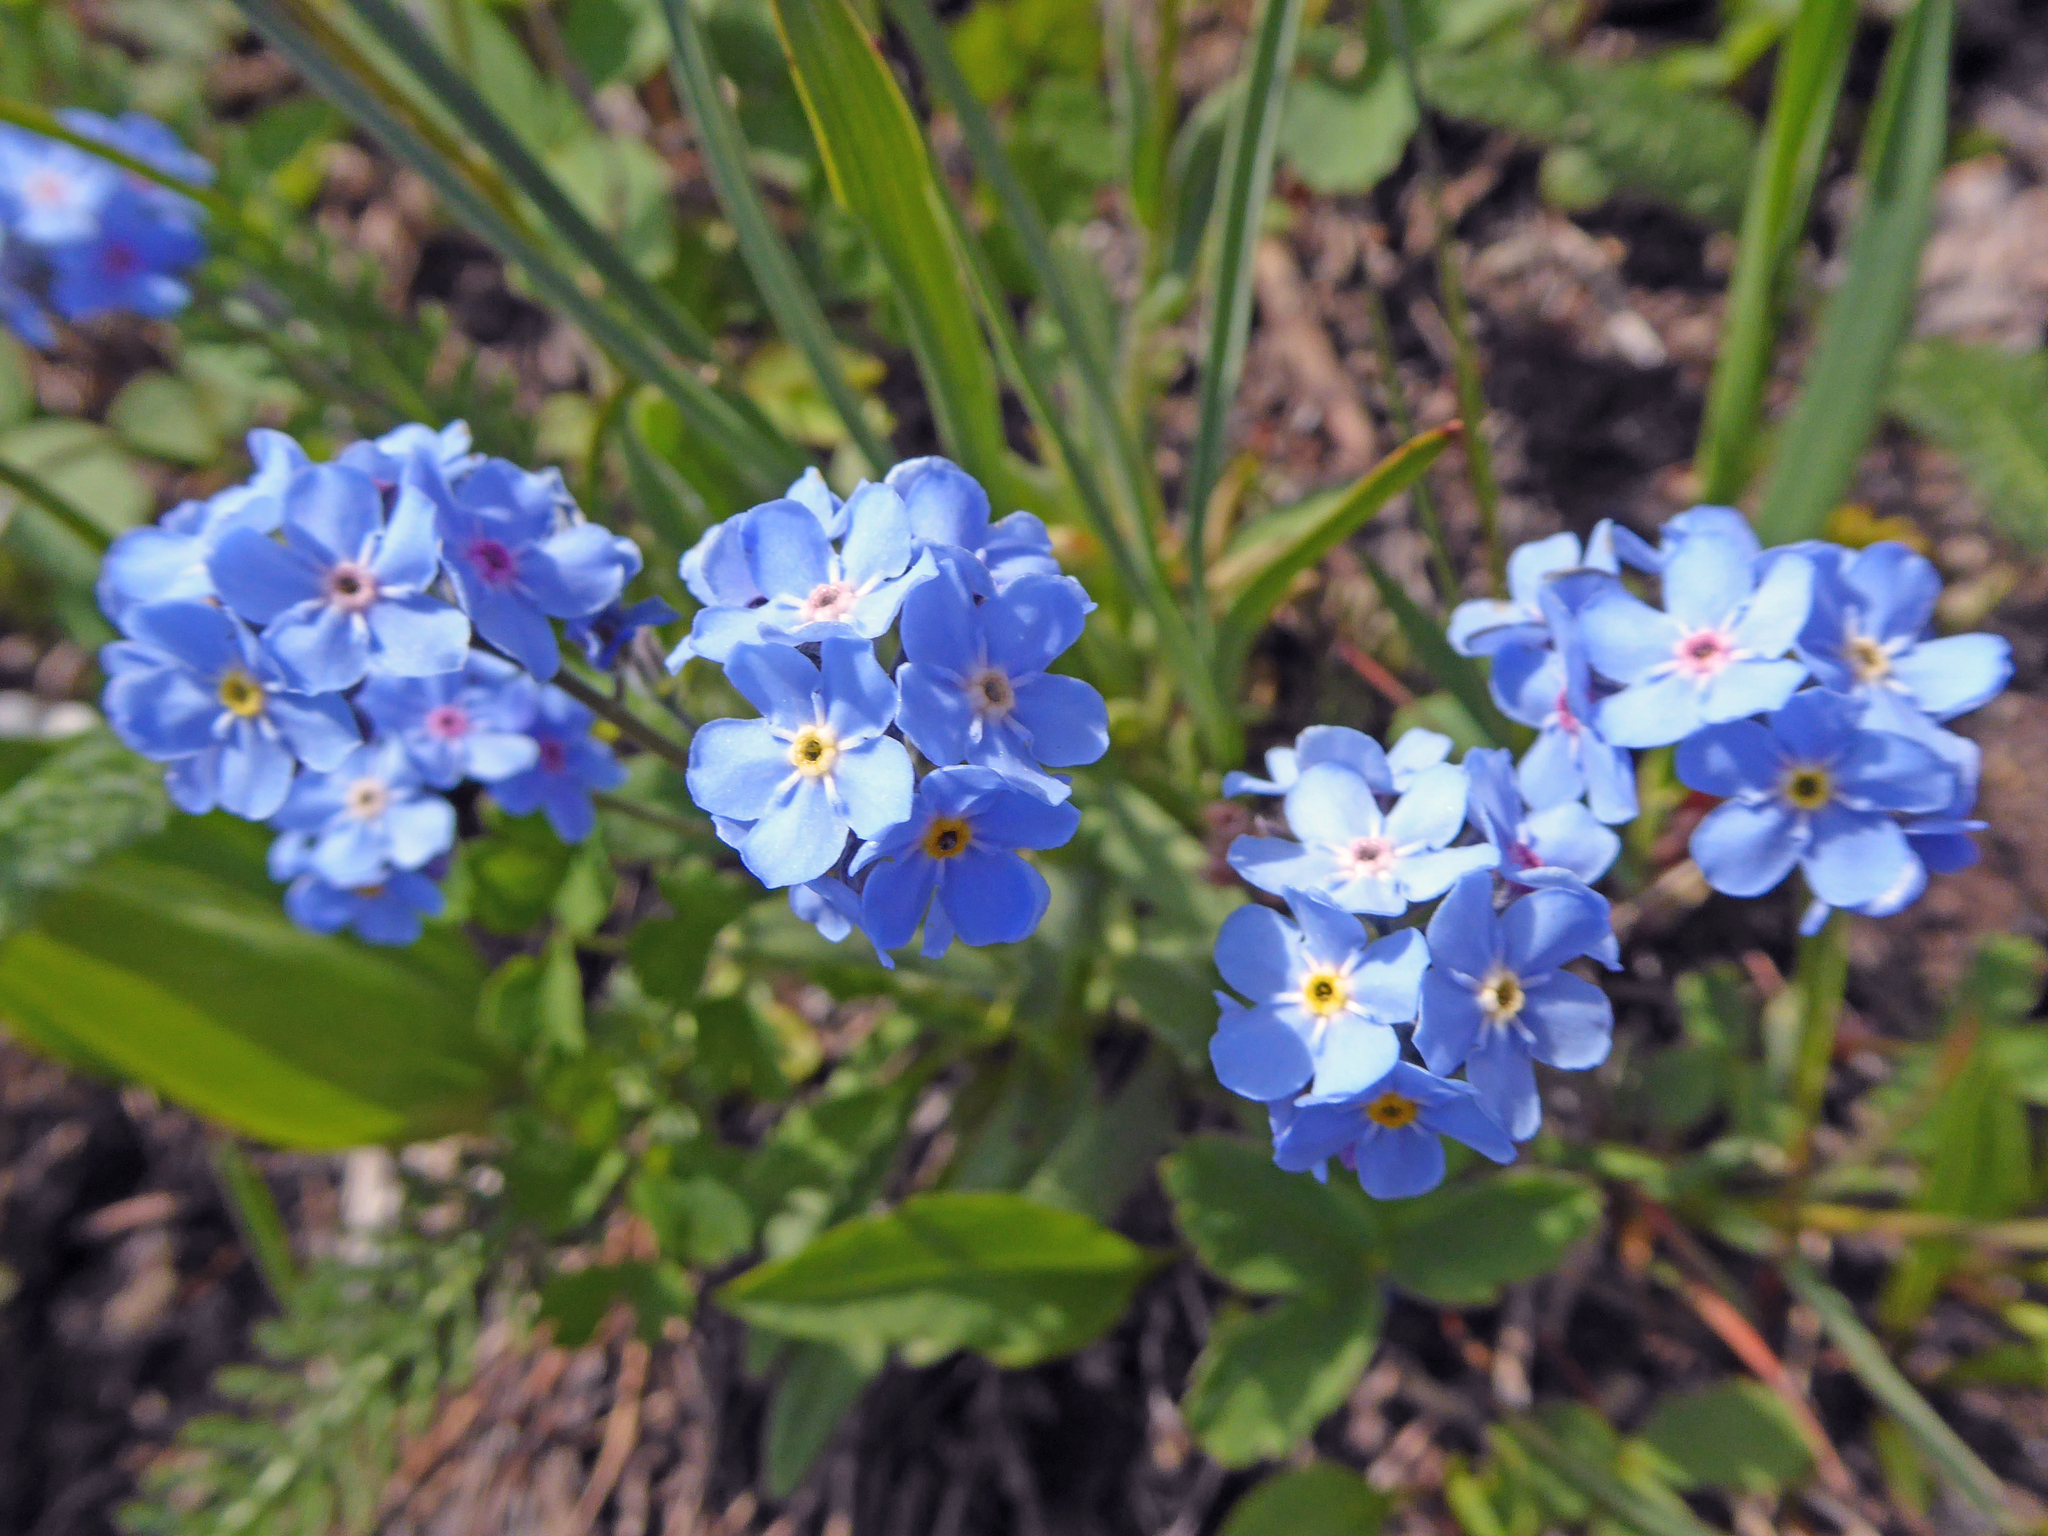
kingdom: Plantae
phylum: Tracheophyta
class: Magnoliopsida
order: Boraginales
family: Boraginaceae
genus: Myosotis
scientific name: Myosotis asiatica
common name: Asian forget-me-not
